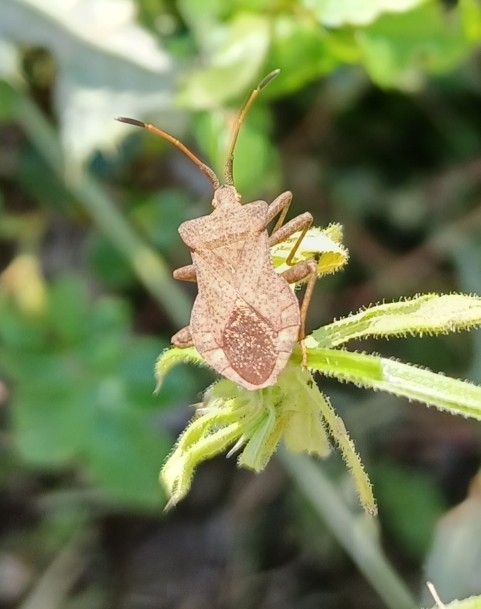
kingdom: Animalia
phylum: Arthropoda
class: Insecta
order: Hemiptera
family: Coreidae
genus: Coreus
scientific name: Coreus marginatus
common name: Dock bug
